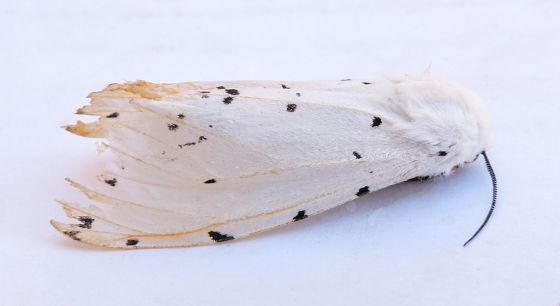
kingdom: Animalia
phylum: Arthropoda
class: Insecta
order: Lepidoptera
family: Erebidae
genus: Estigmene
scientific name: Estigmene albida
